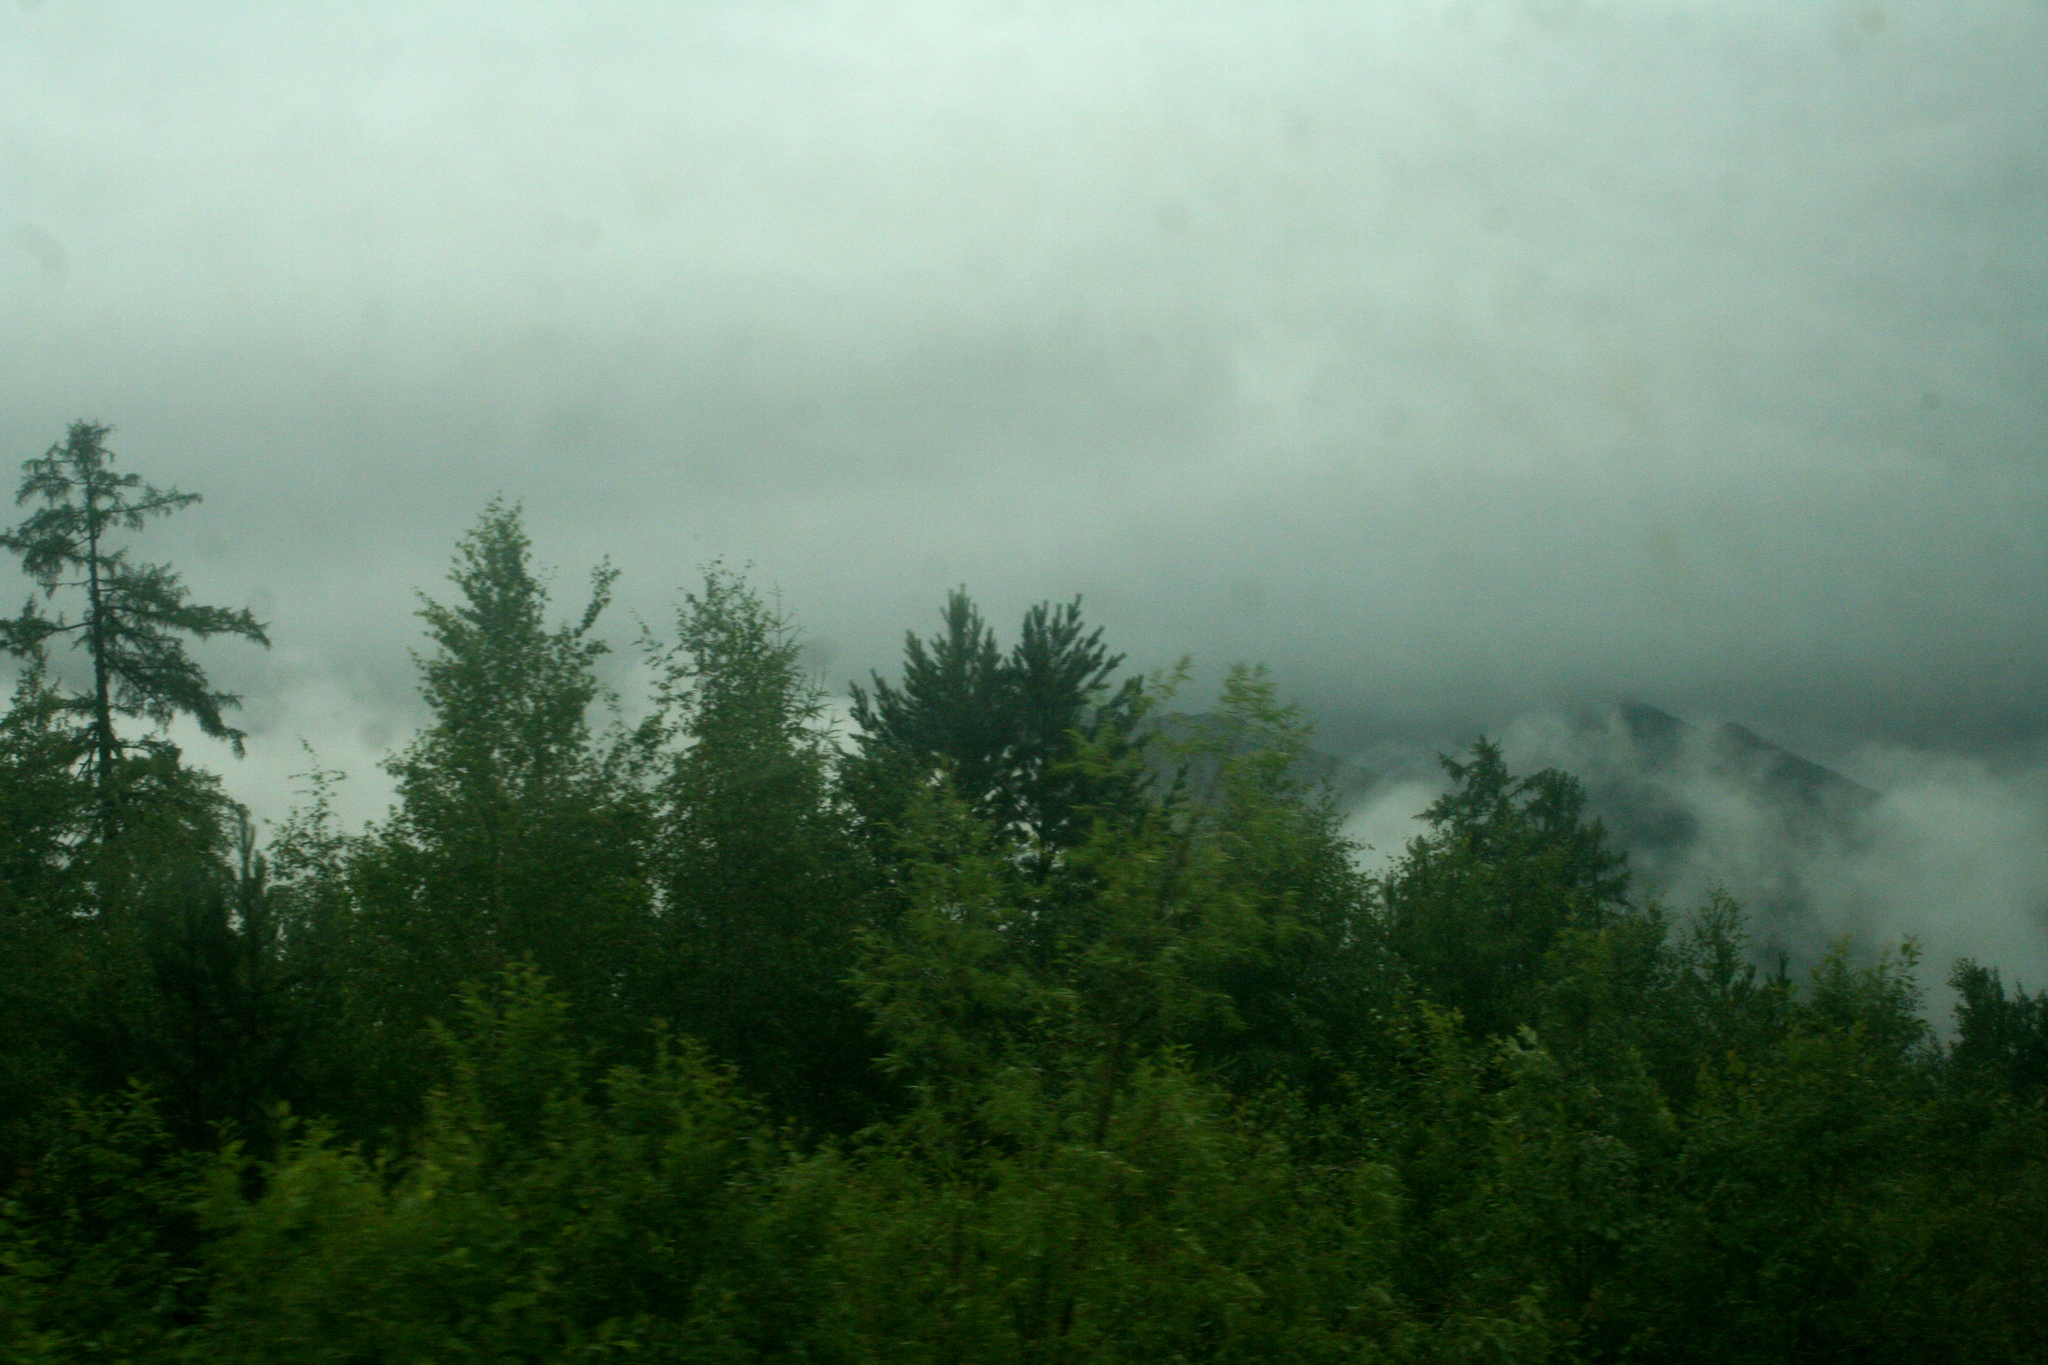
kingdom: Plantae
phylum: Tracheophyta
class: Pinopsida
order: Pinales
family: Pinaceae
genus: Pinus
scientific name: Pinus sylvestris
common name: Scots pine
